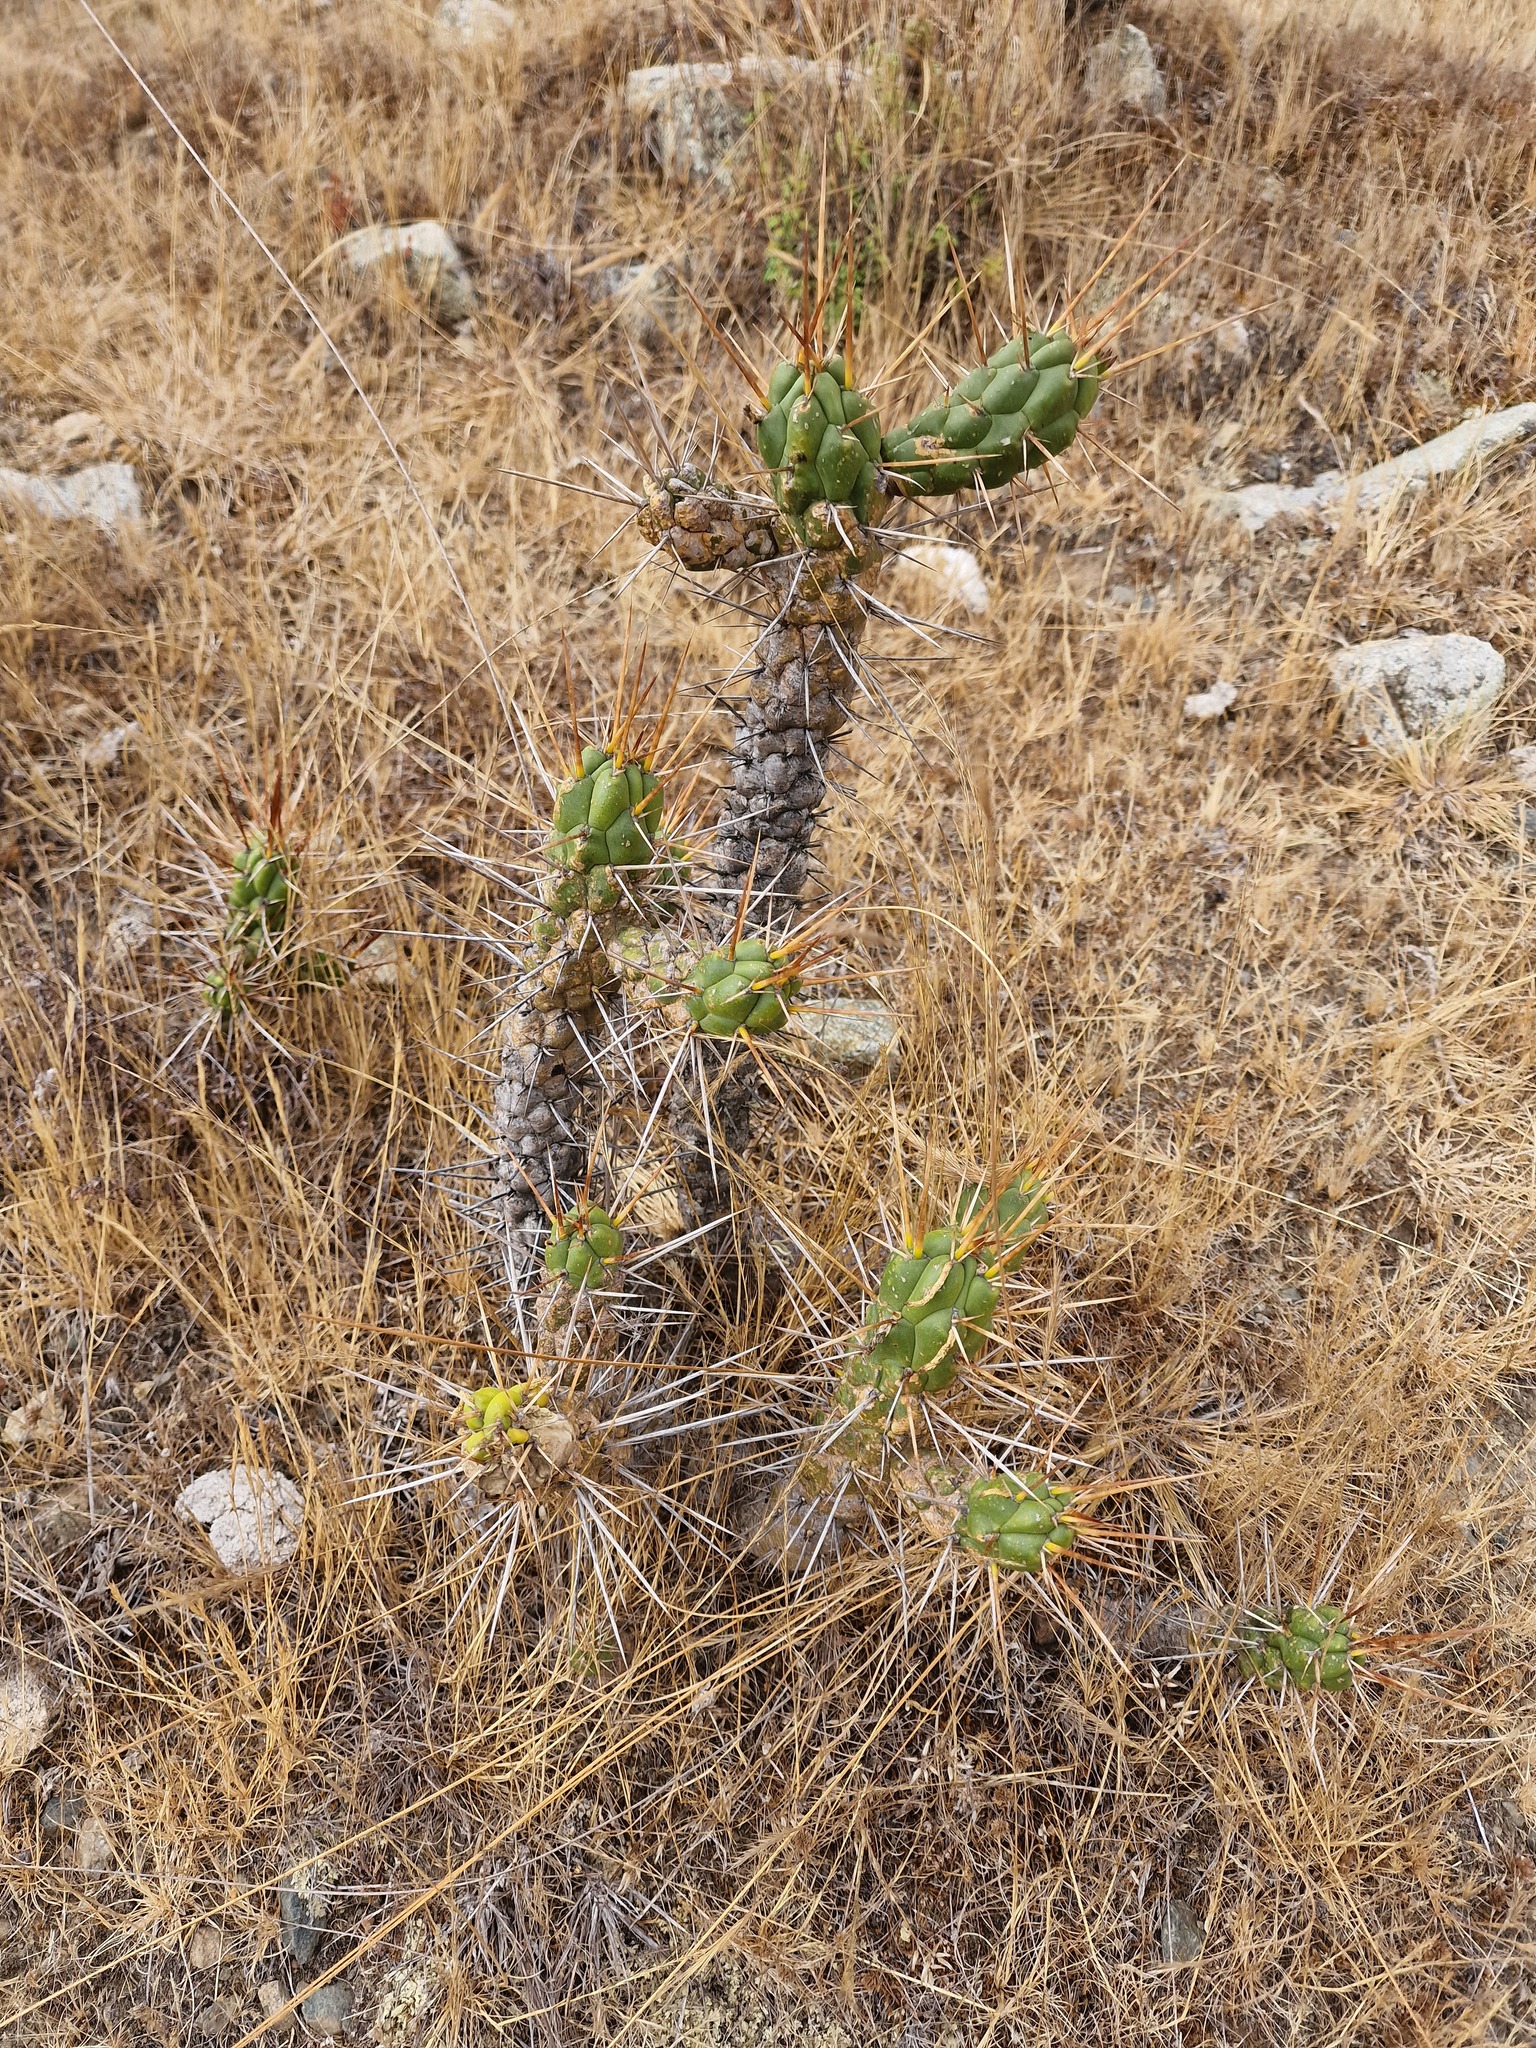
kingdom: Plantae
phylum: Tracheophyta
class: Magnoliopsida
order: Caryophyllales
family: Cactaceae
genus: Austrocylindropuntia
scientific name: Austrocylindropuntia subulata
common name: Eve's needle cactus
